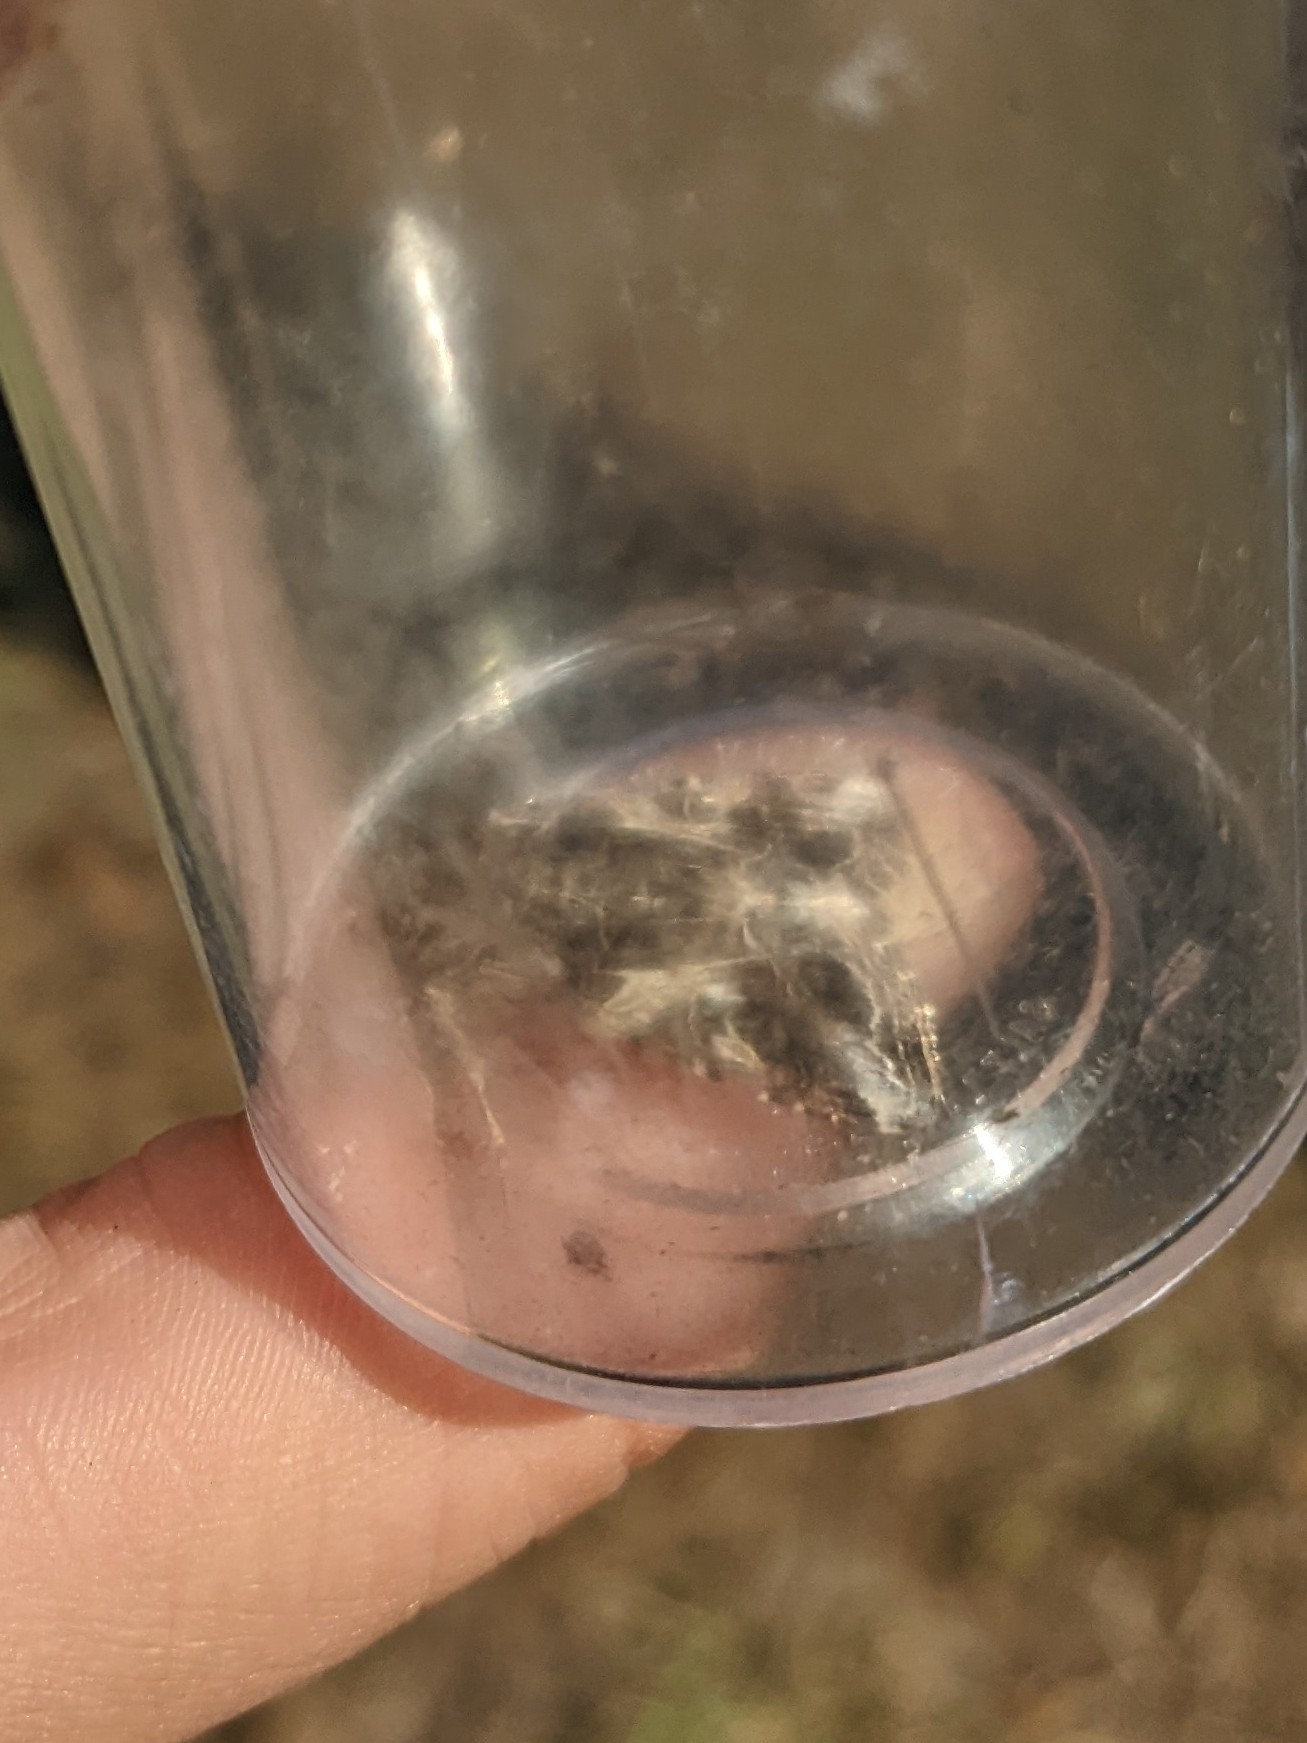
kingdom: Animalia
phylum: Arthropoda
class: Insecta
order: Lepidoptera
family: Noctuidae
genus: Spodoptera
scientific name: Spodoptera ornithogalli
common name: Yellow-striped armyworm
